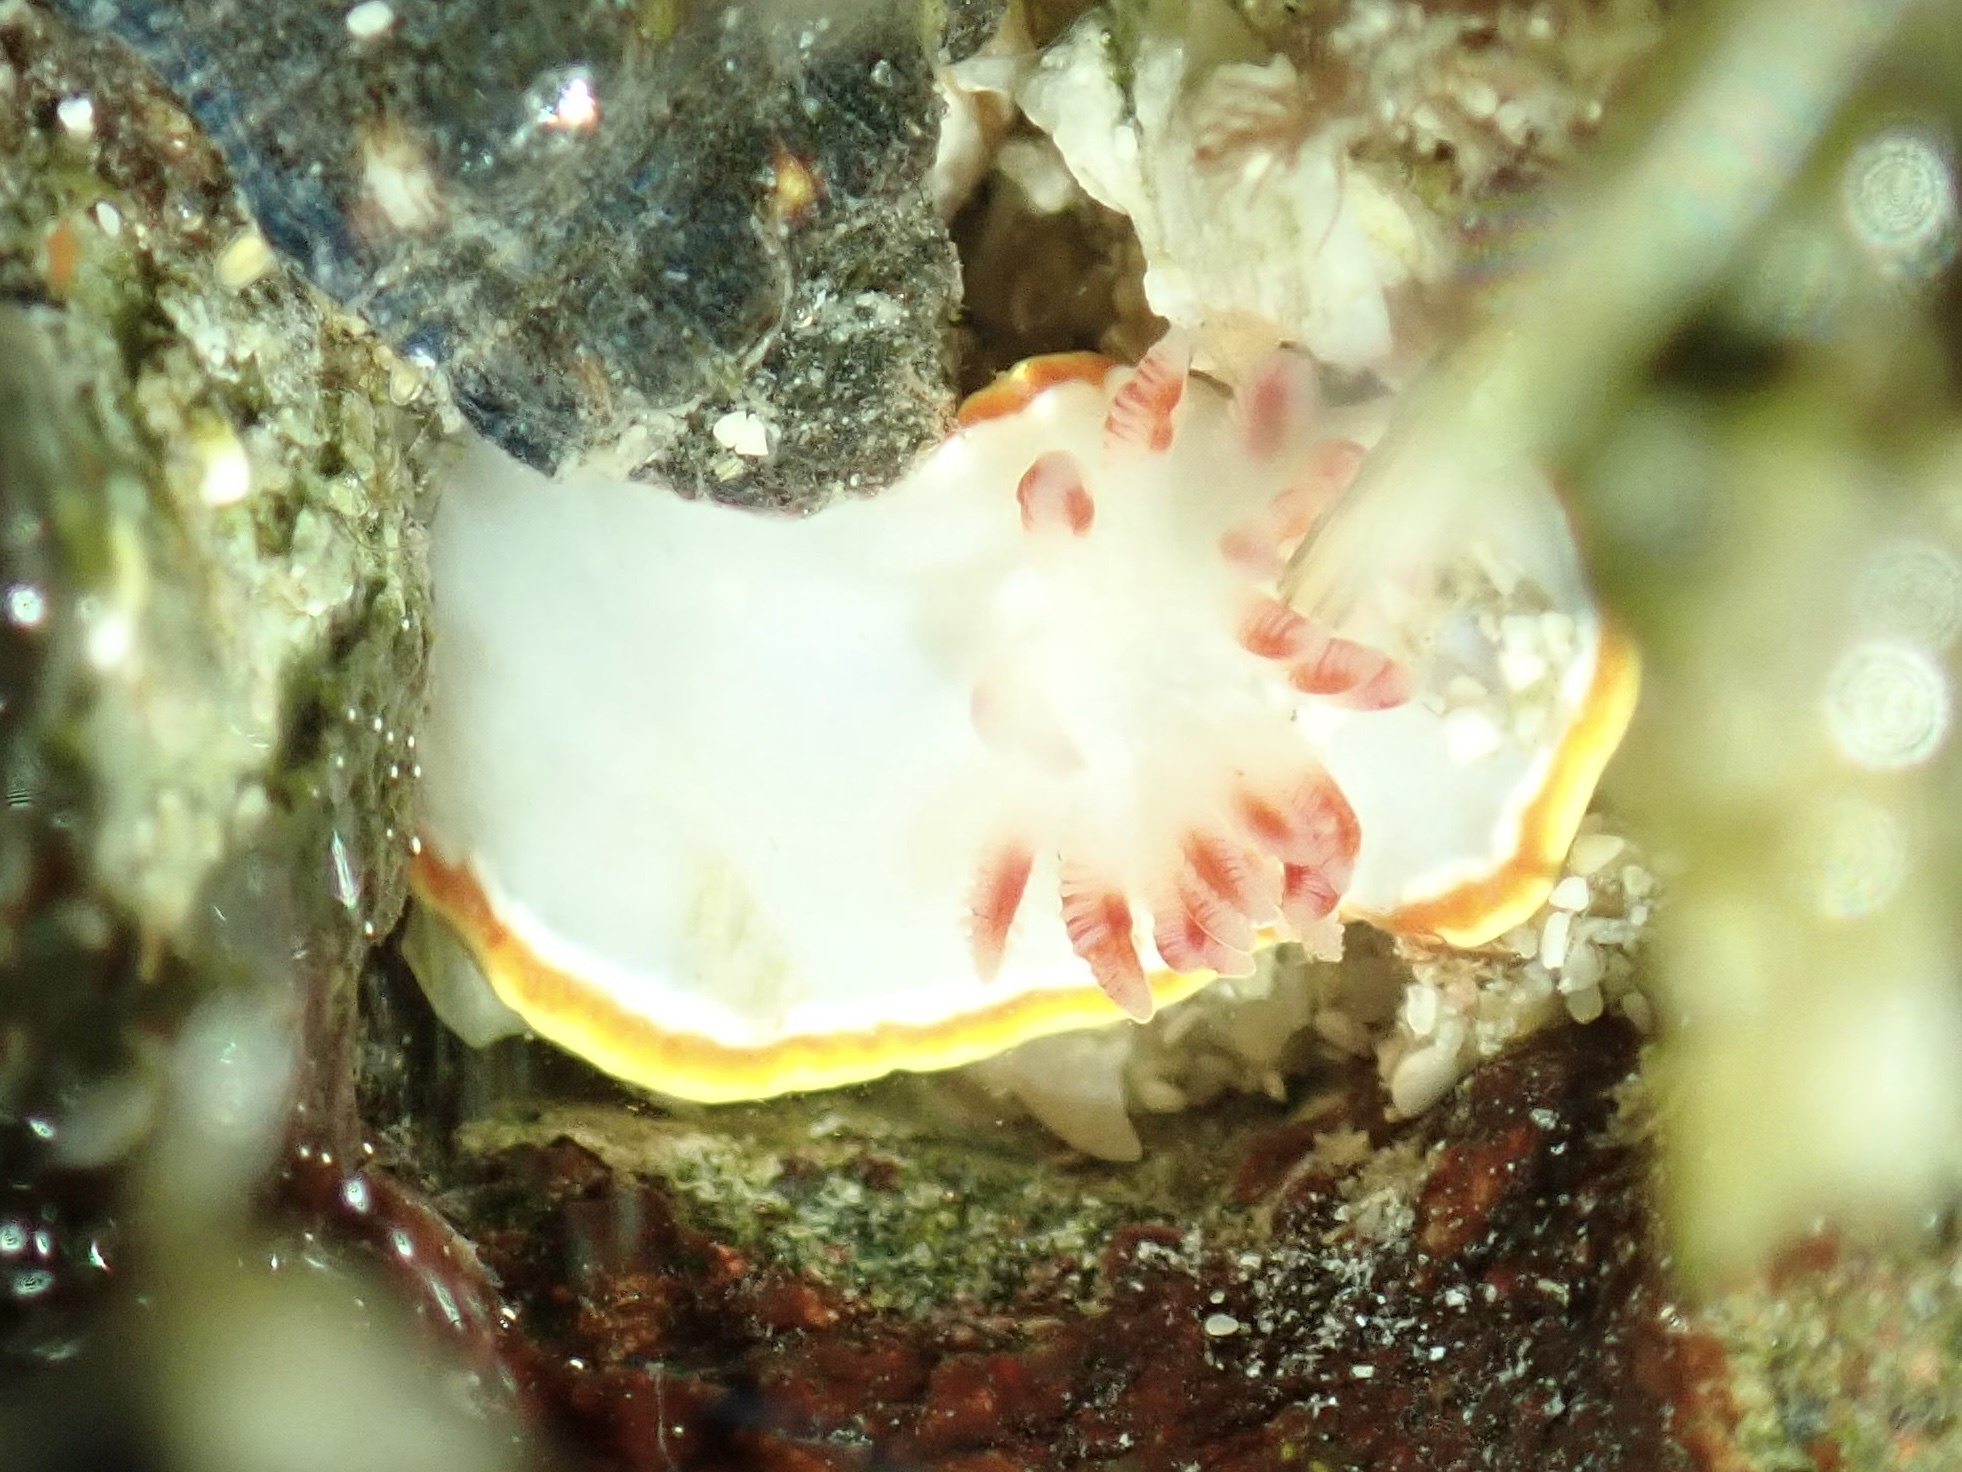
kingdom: Animalia
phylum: Mollusca
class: Gastropoda
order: Nudibranchia
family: Chromodorididae
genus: Chromolaichma
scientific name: Chromolaichma sedna
